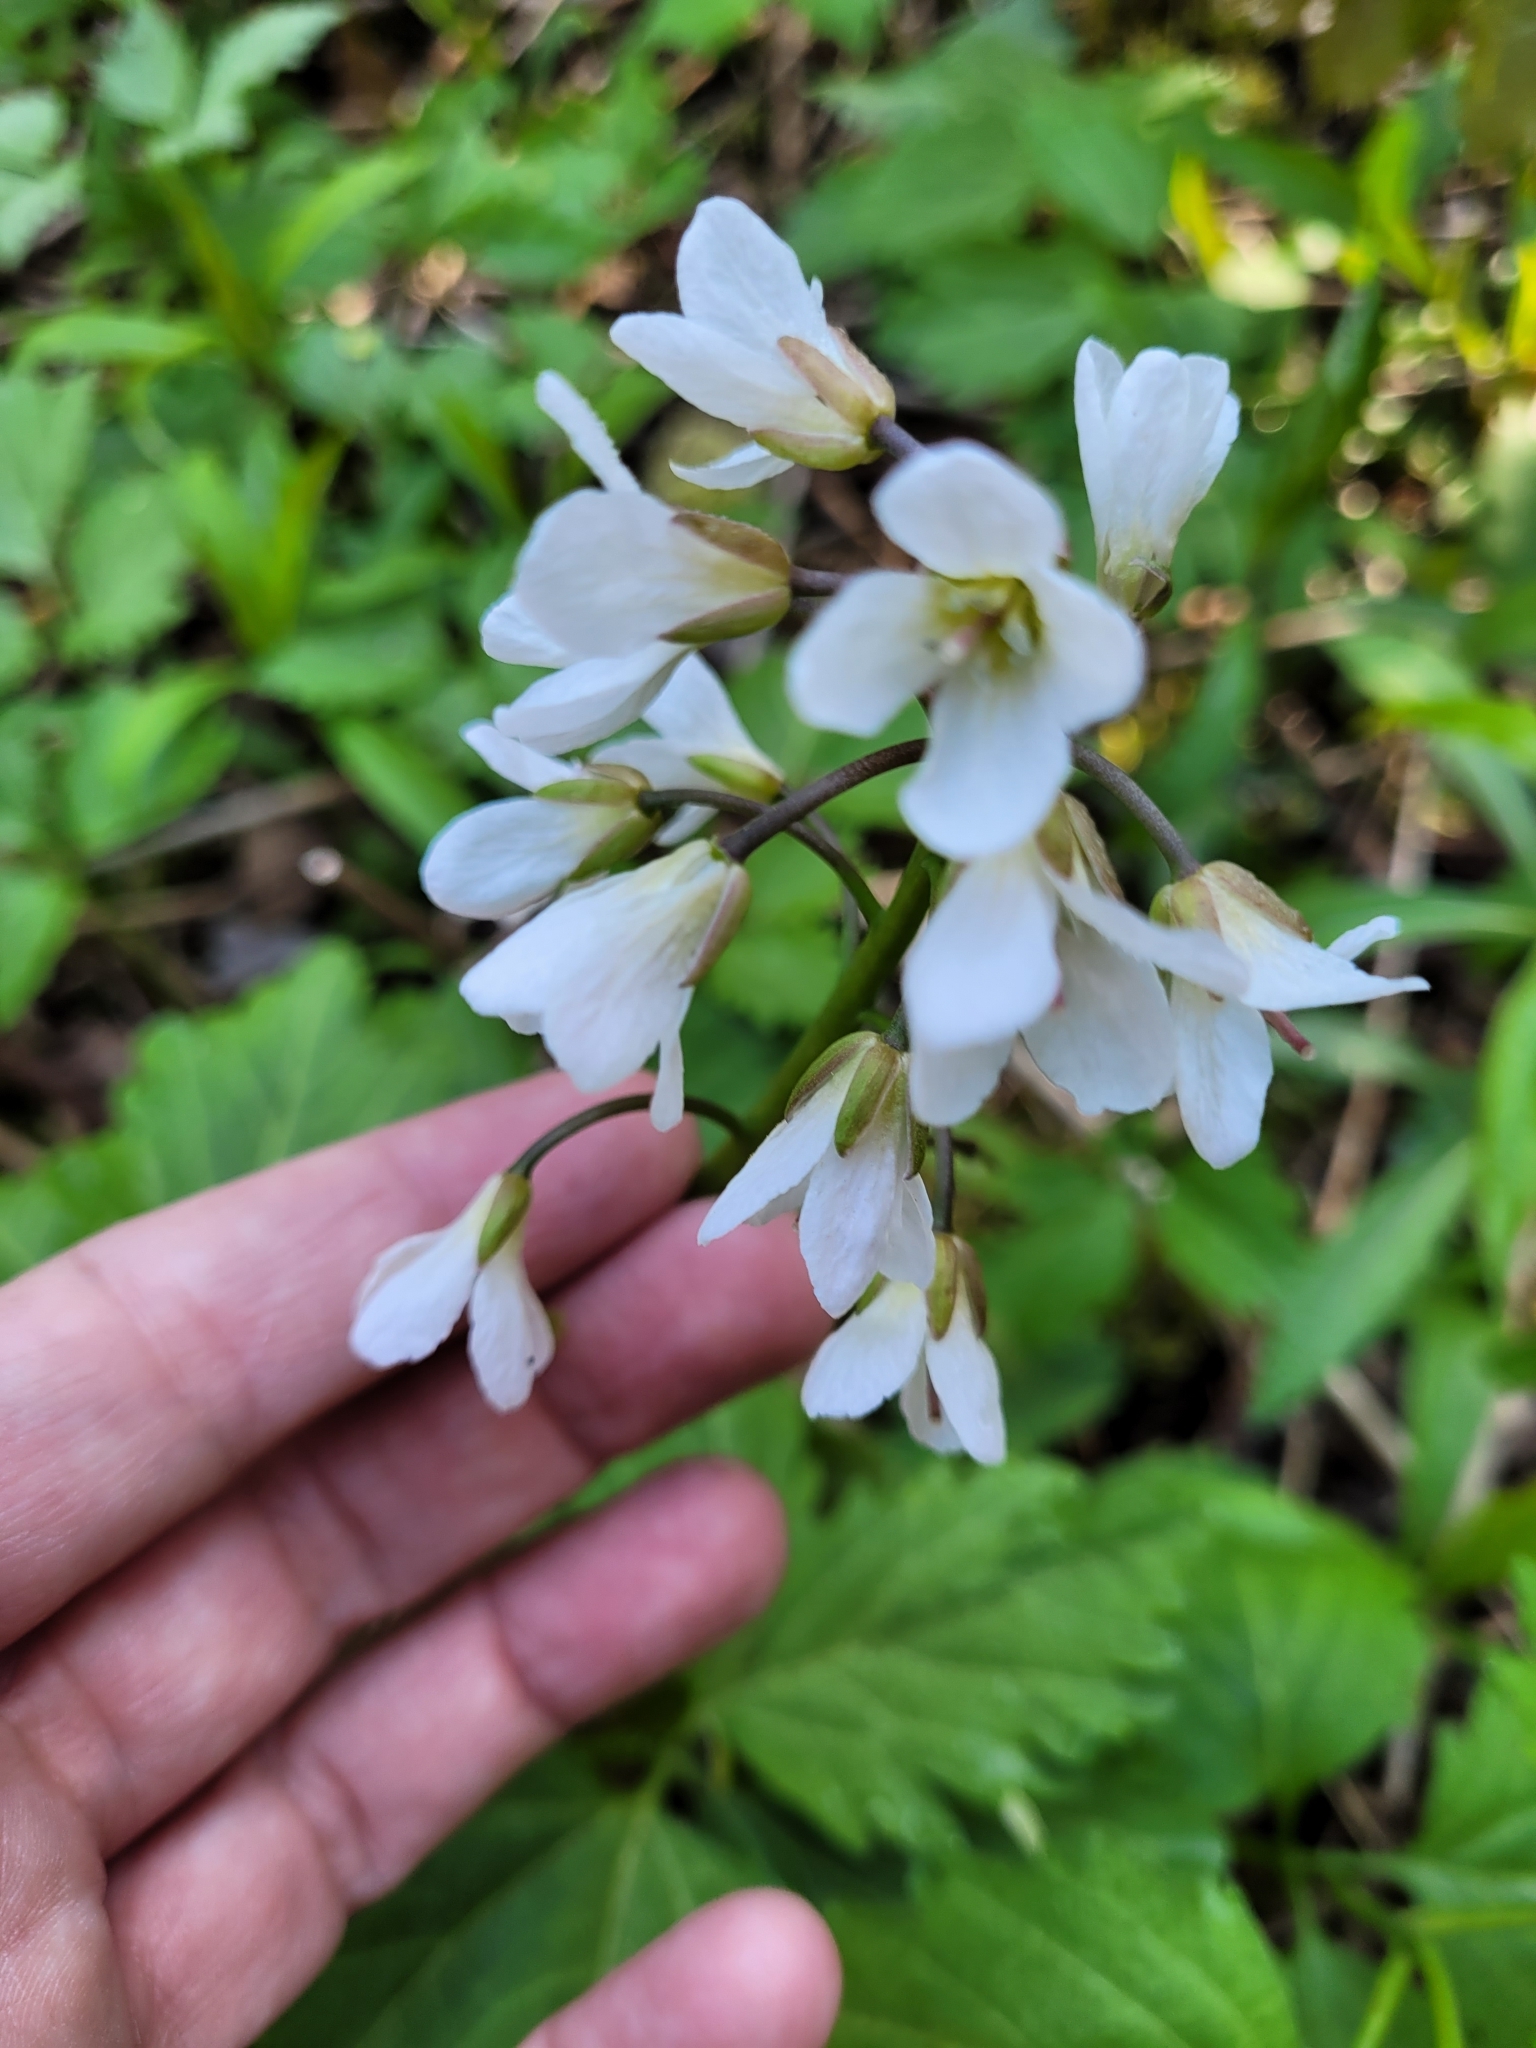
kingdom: Plantae
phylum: Tracheophyta
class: Magnoliopsida
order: Brassicales
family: Brassicaceae
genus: Cardamine
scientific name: Cardamine diphylla
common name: Broad-leaved toothwort
